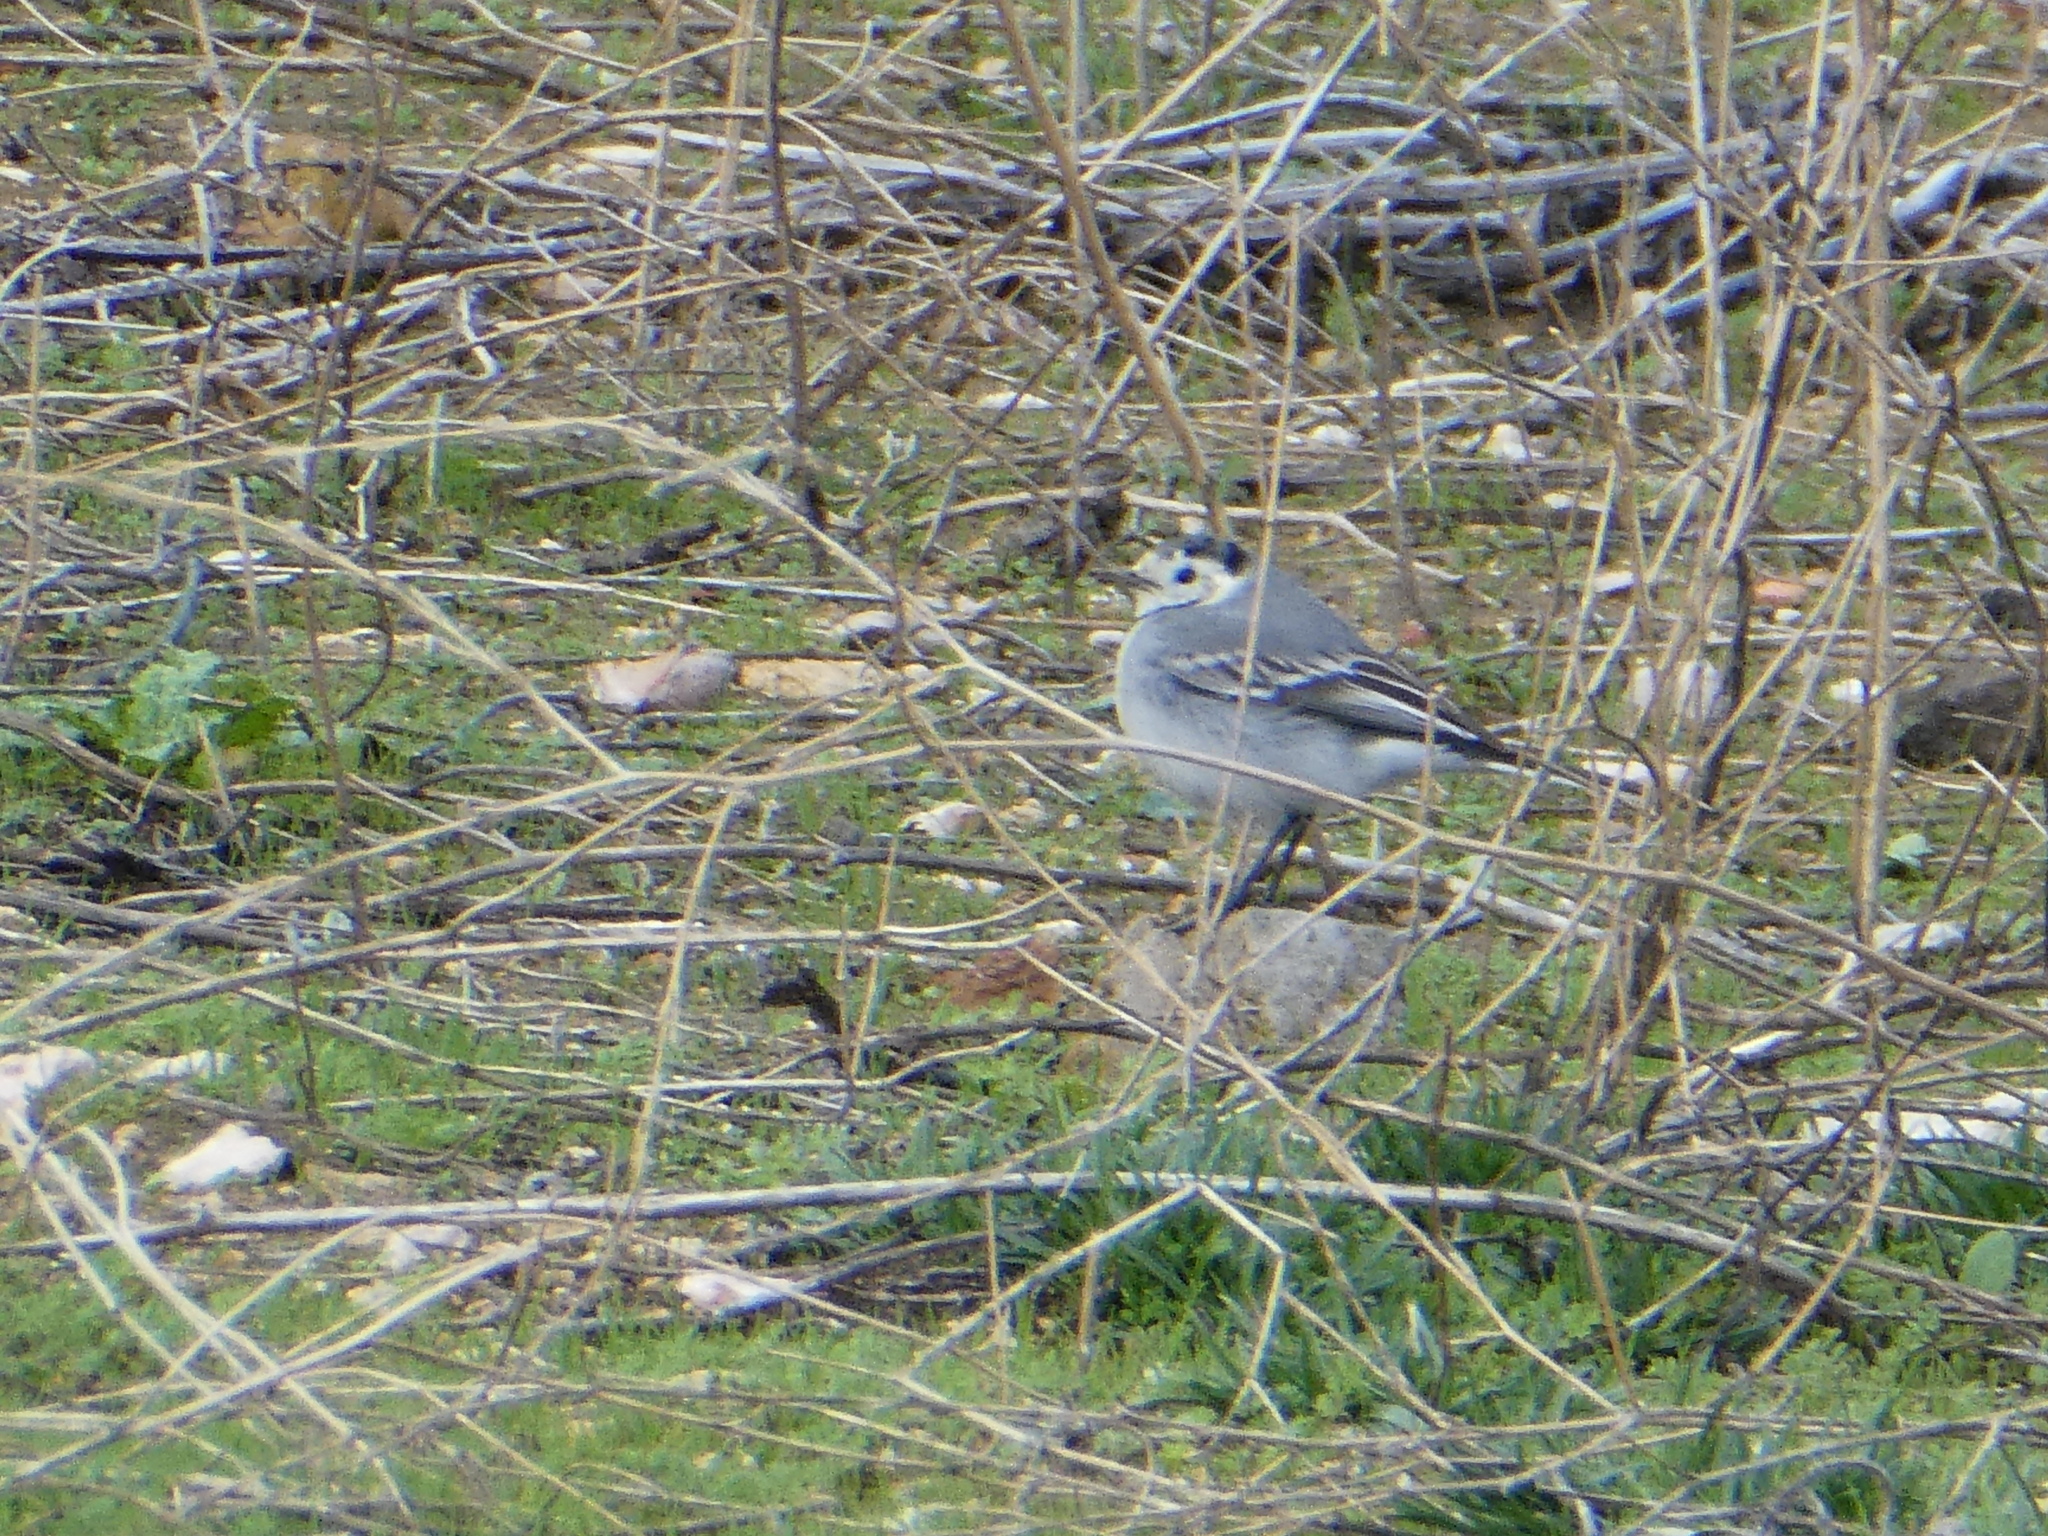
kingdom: Animalia
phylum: Chordata
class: Aves
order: Passeriformes
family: Motacillidae
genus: Motacilla
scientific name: Motacilla alba
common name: White wagtail
